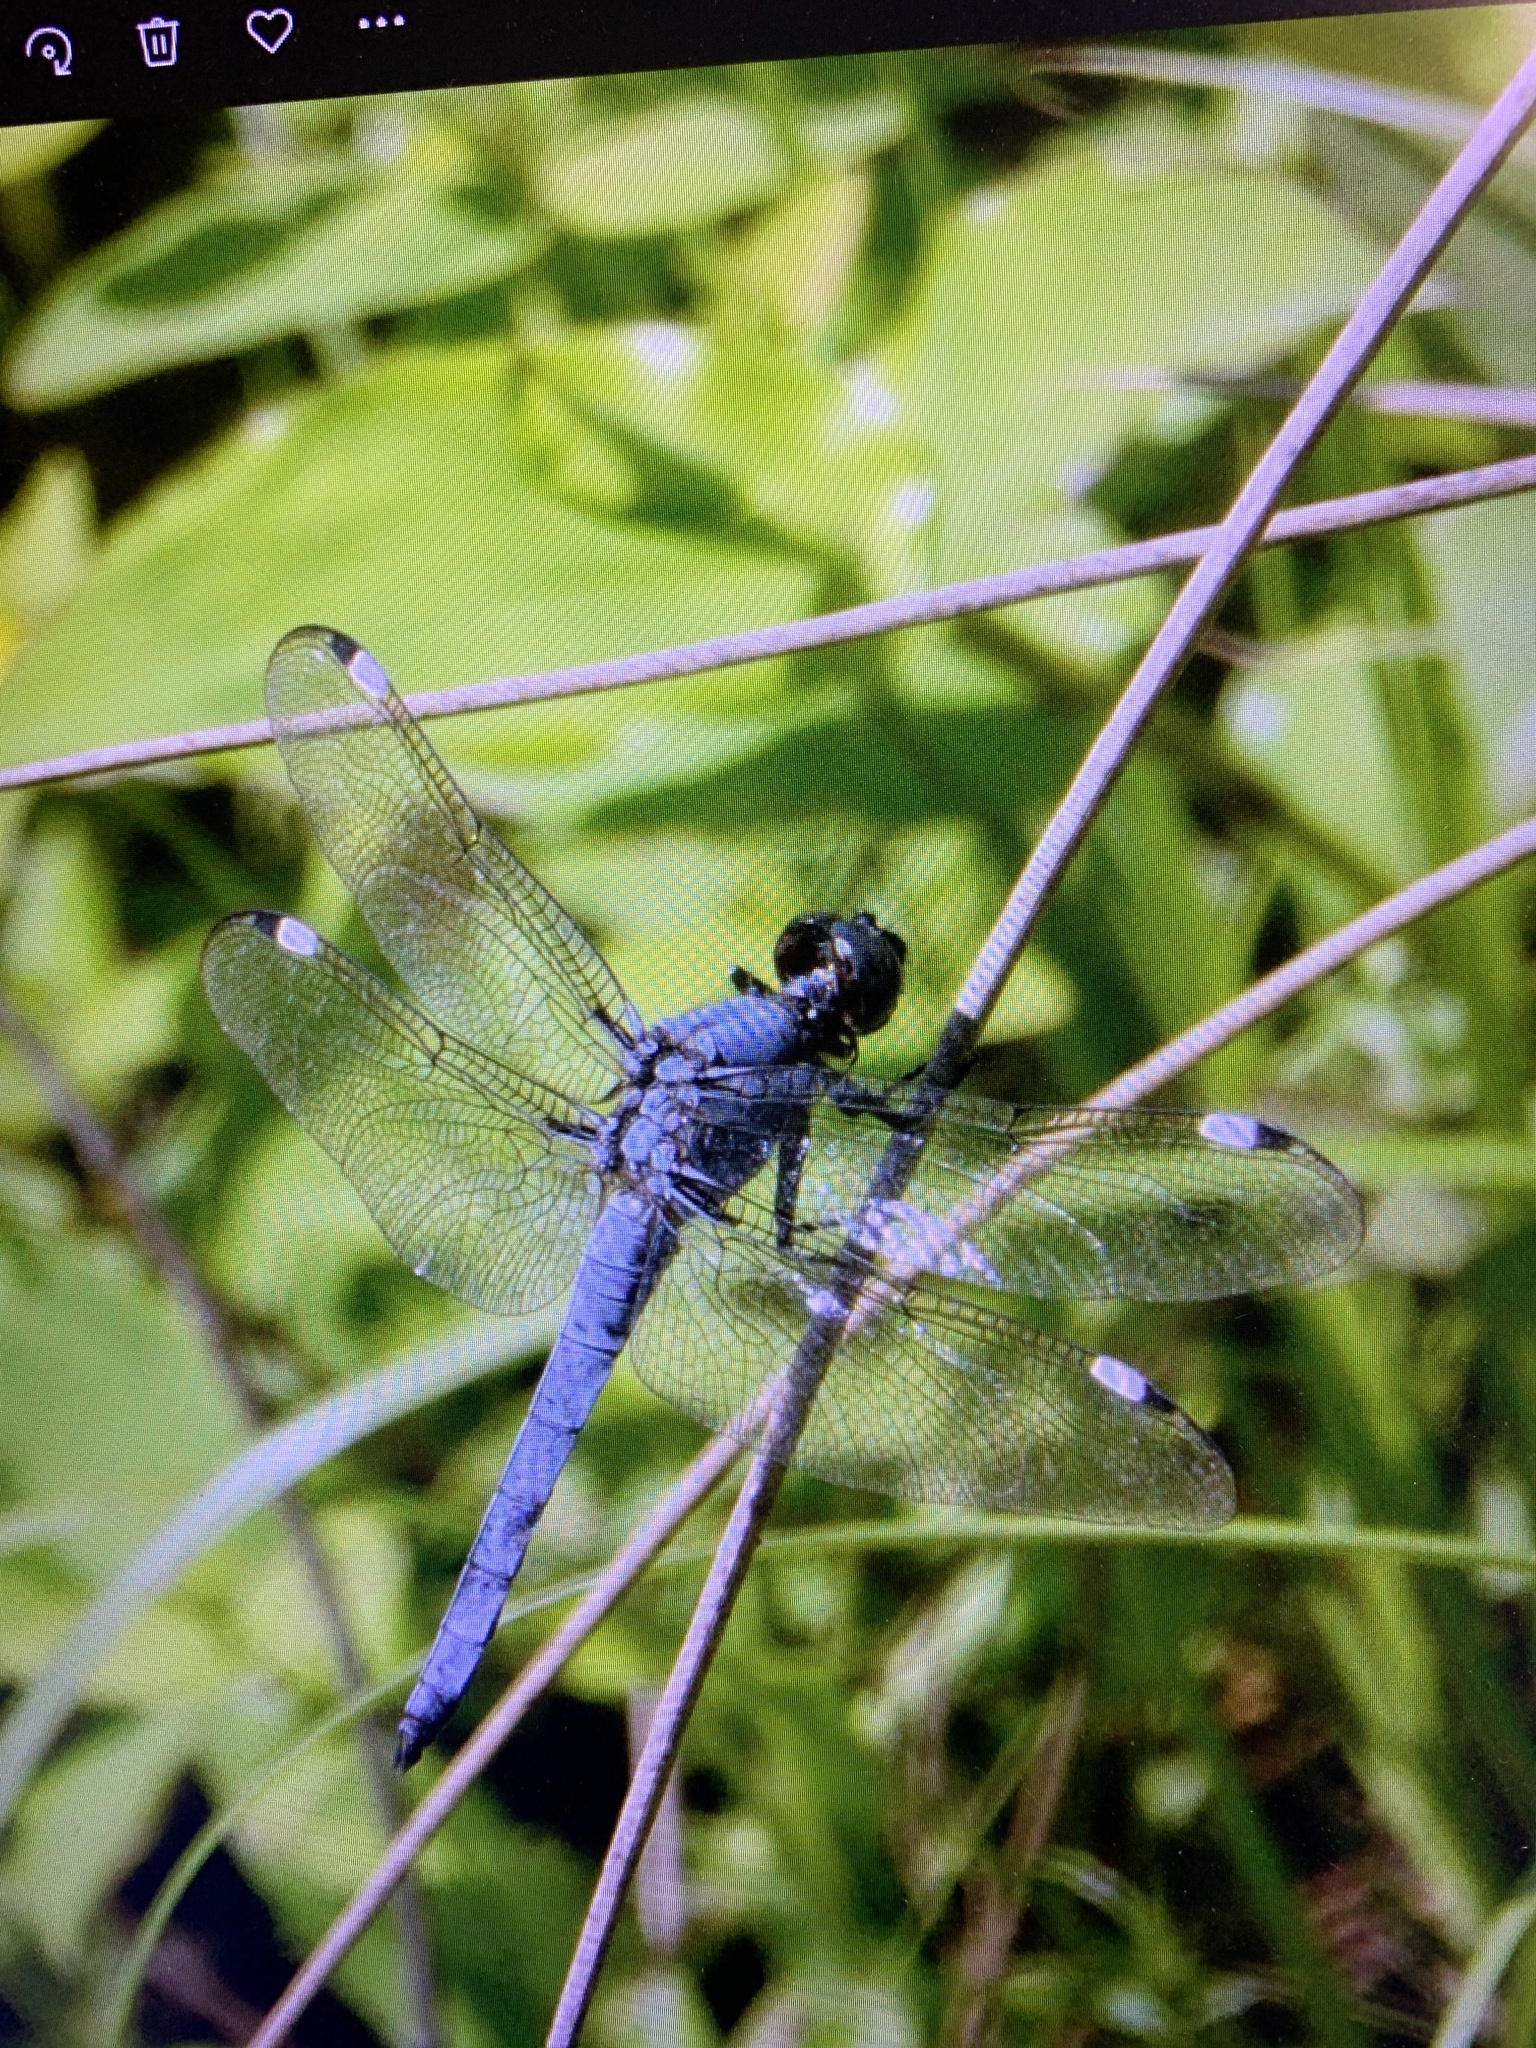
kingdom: Animalia
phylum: Arthropoda
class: Insecta
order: Odonata
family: Libellulidae
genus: Libellula
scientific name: Libellula cyanea
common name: Spangled skimmer
